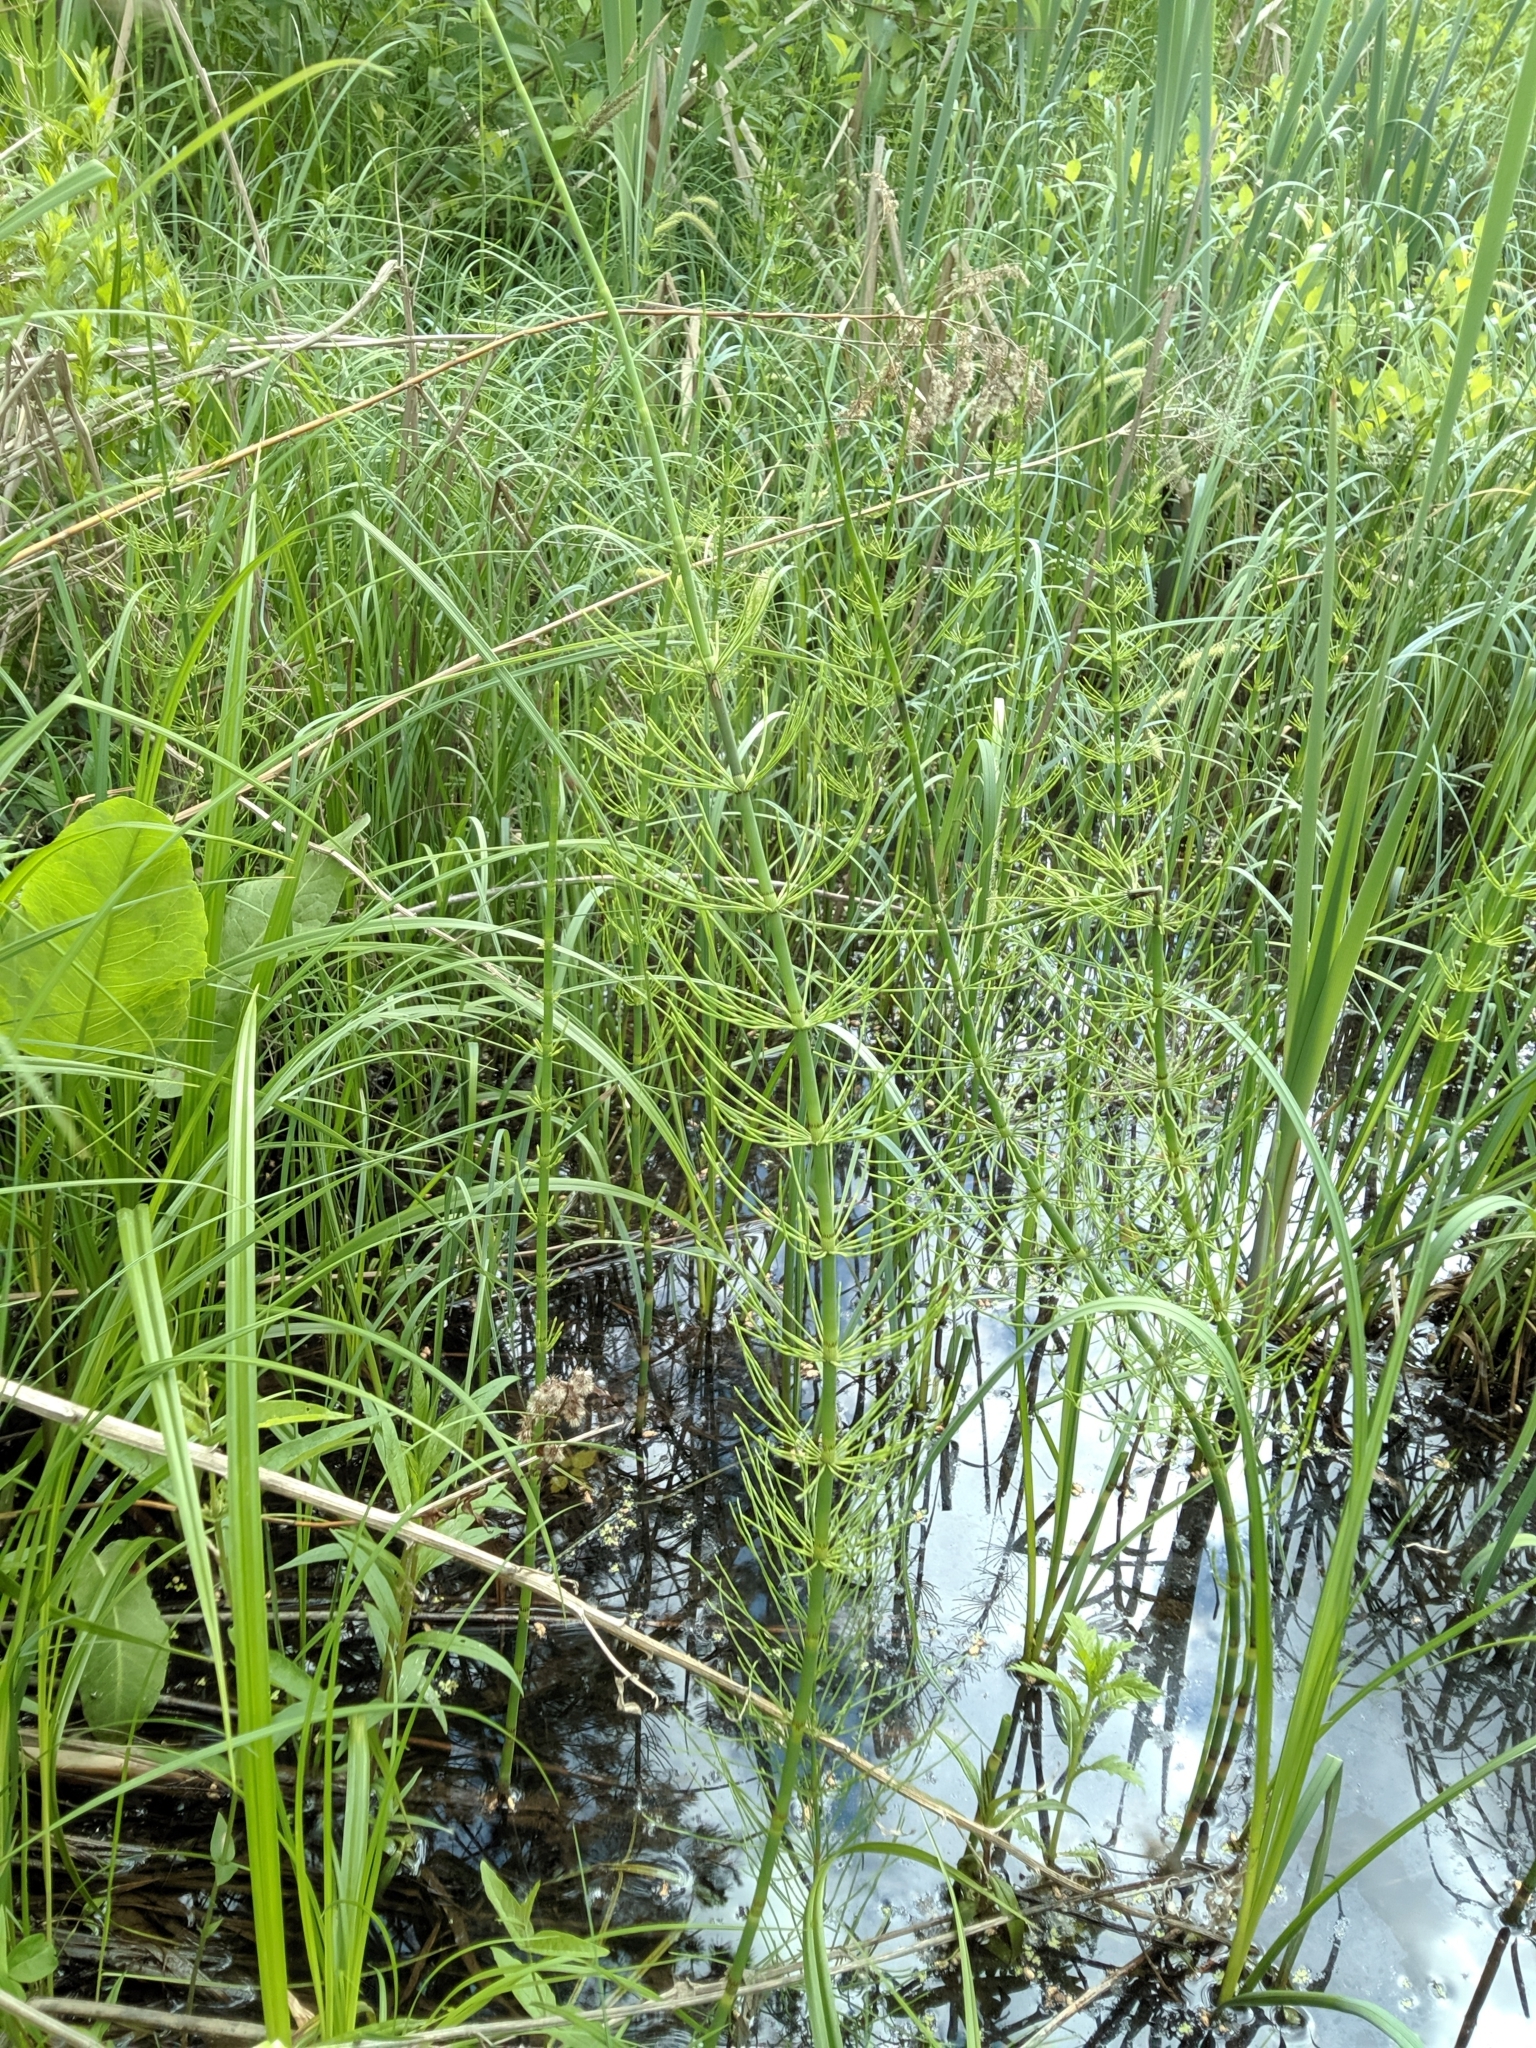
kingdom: Plantae
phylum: Tracheophyta
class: Polypodiopsida
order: Equisetales
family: Equisetaceae
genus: Equisetum
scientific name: Equisetum fluviatile
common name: Water horsetail
